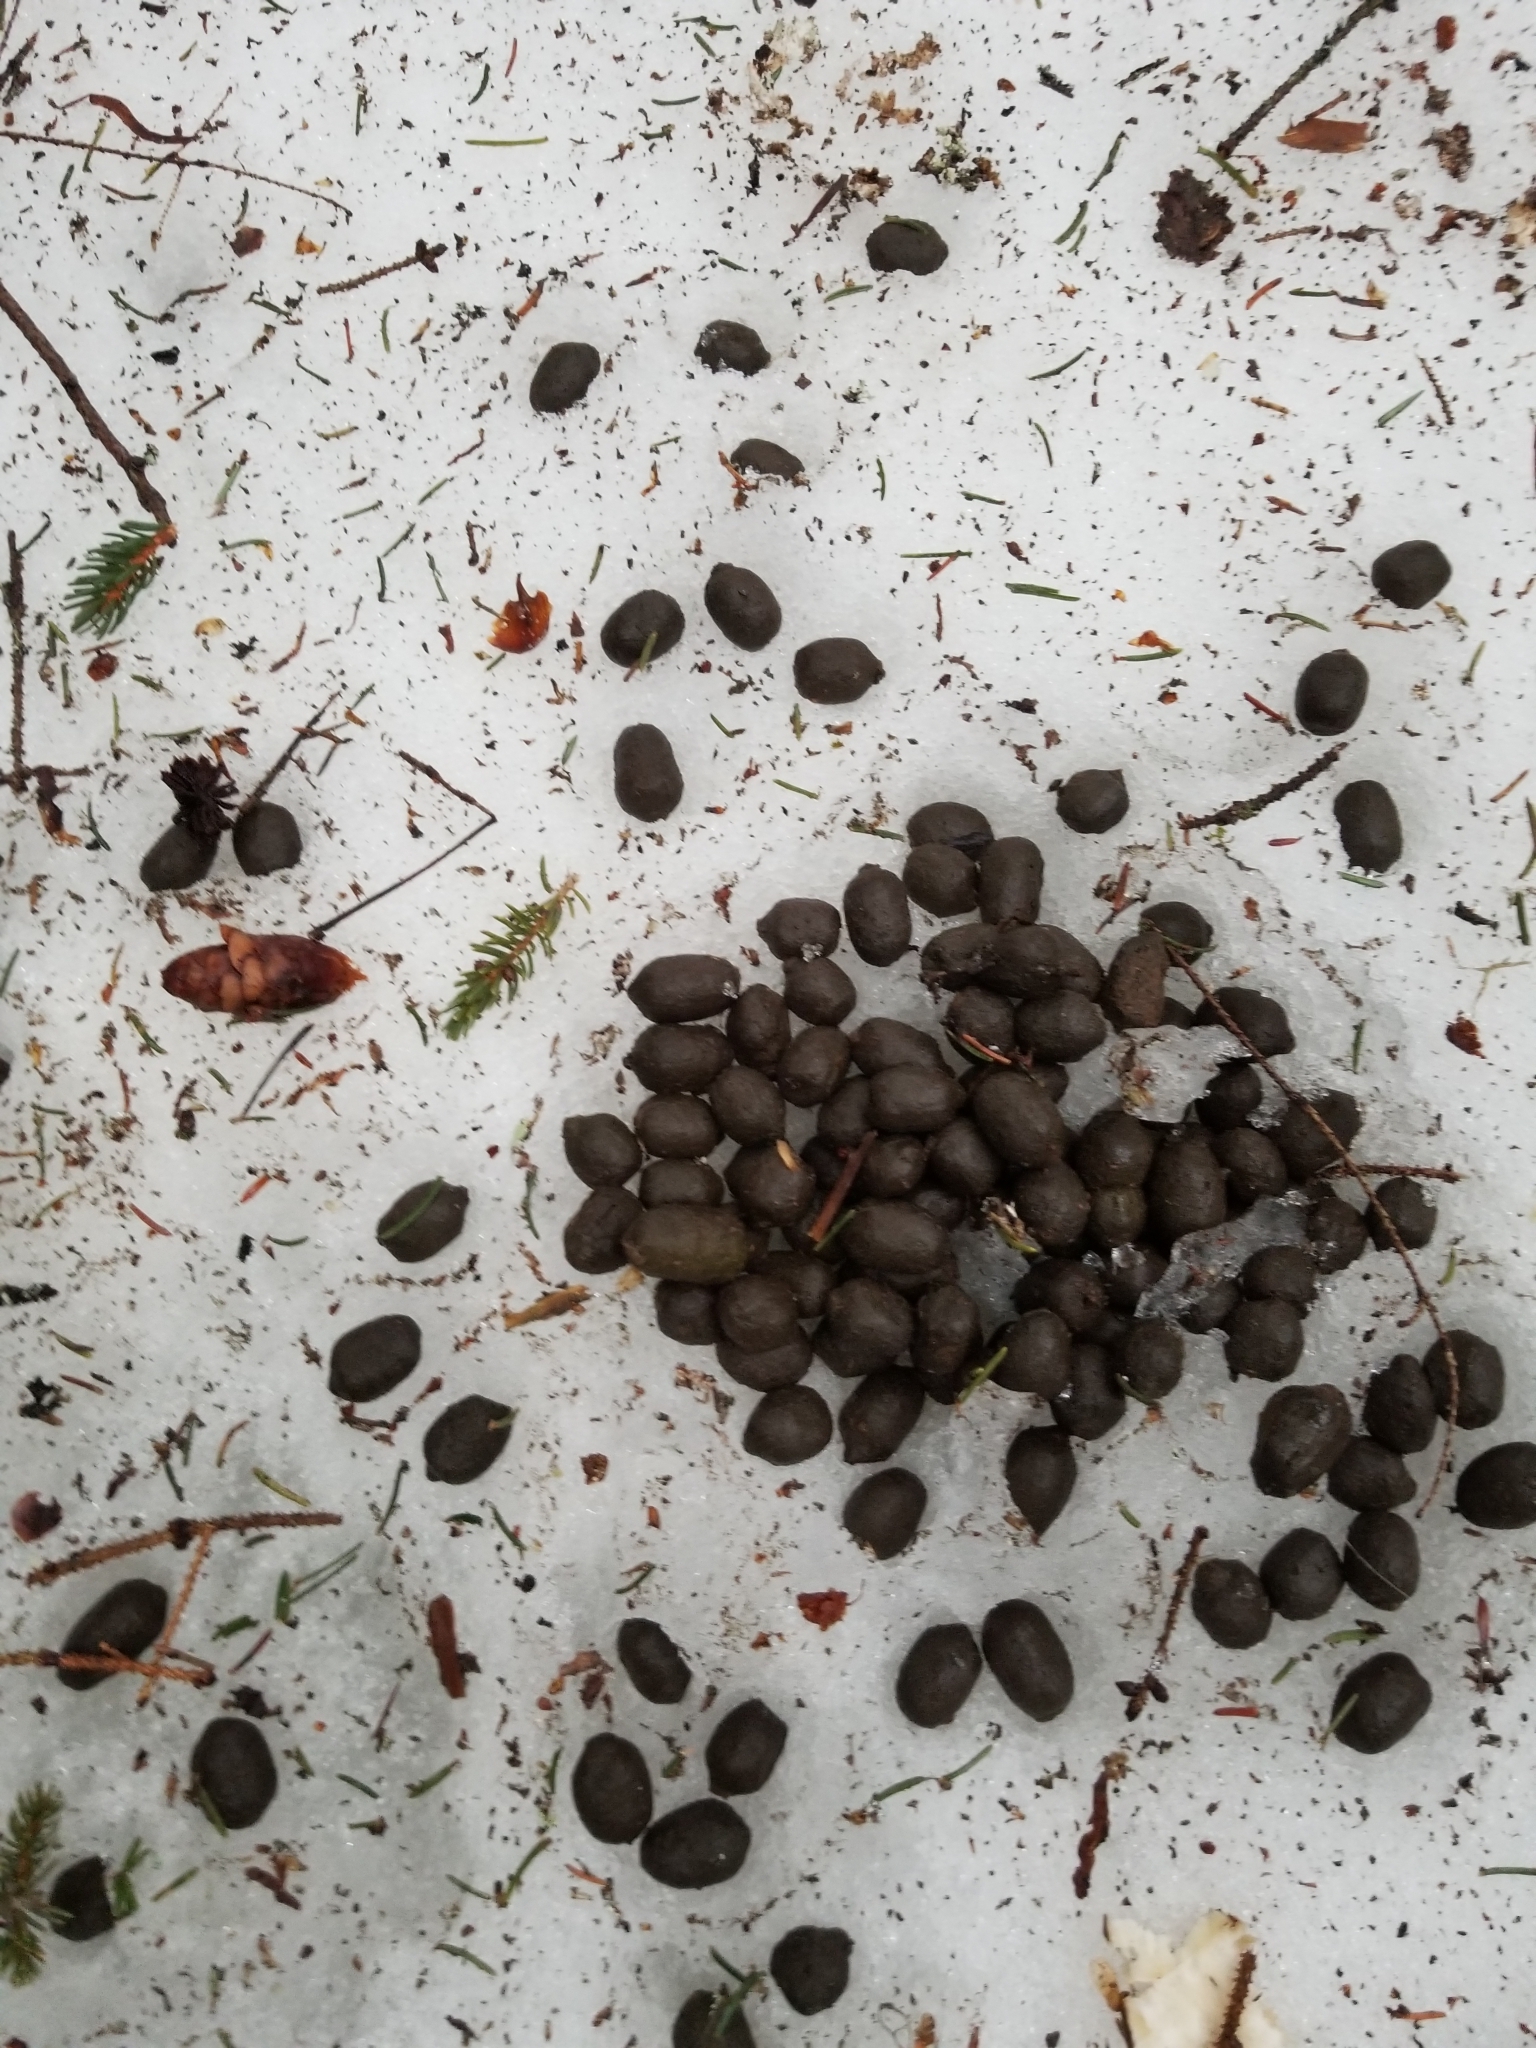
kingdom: Animalia
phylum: Chordata
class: Mammalia
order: Artiodactyla
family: Cervidae
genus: Odocoileus
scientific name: Odocoileus virginianus
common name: White-tailed deer
